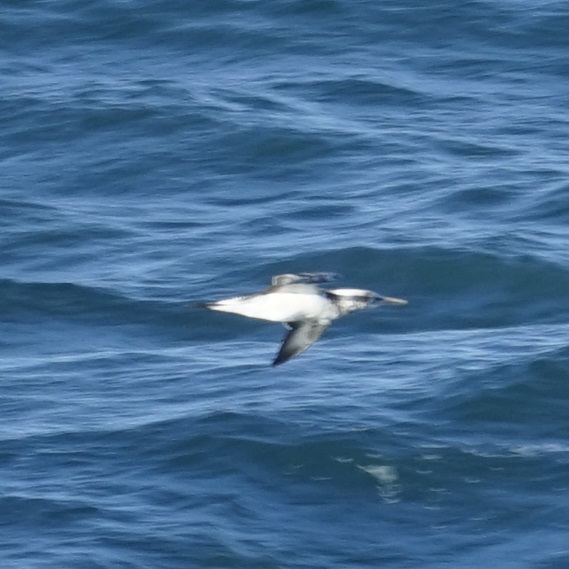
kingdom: Animalia
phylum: Chordata
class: Aves
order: Suliformes
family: Sulidae
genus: Morus
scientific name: Morus serrator
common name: Australasian gannet
